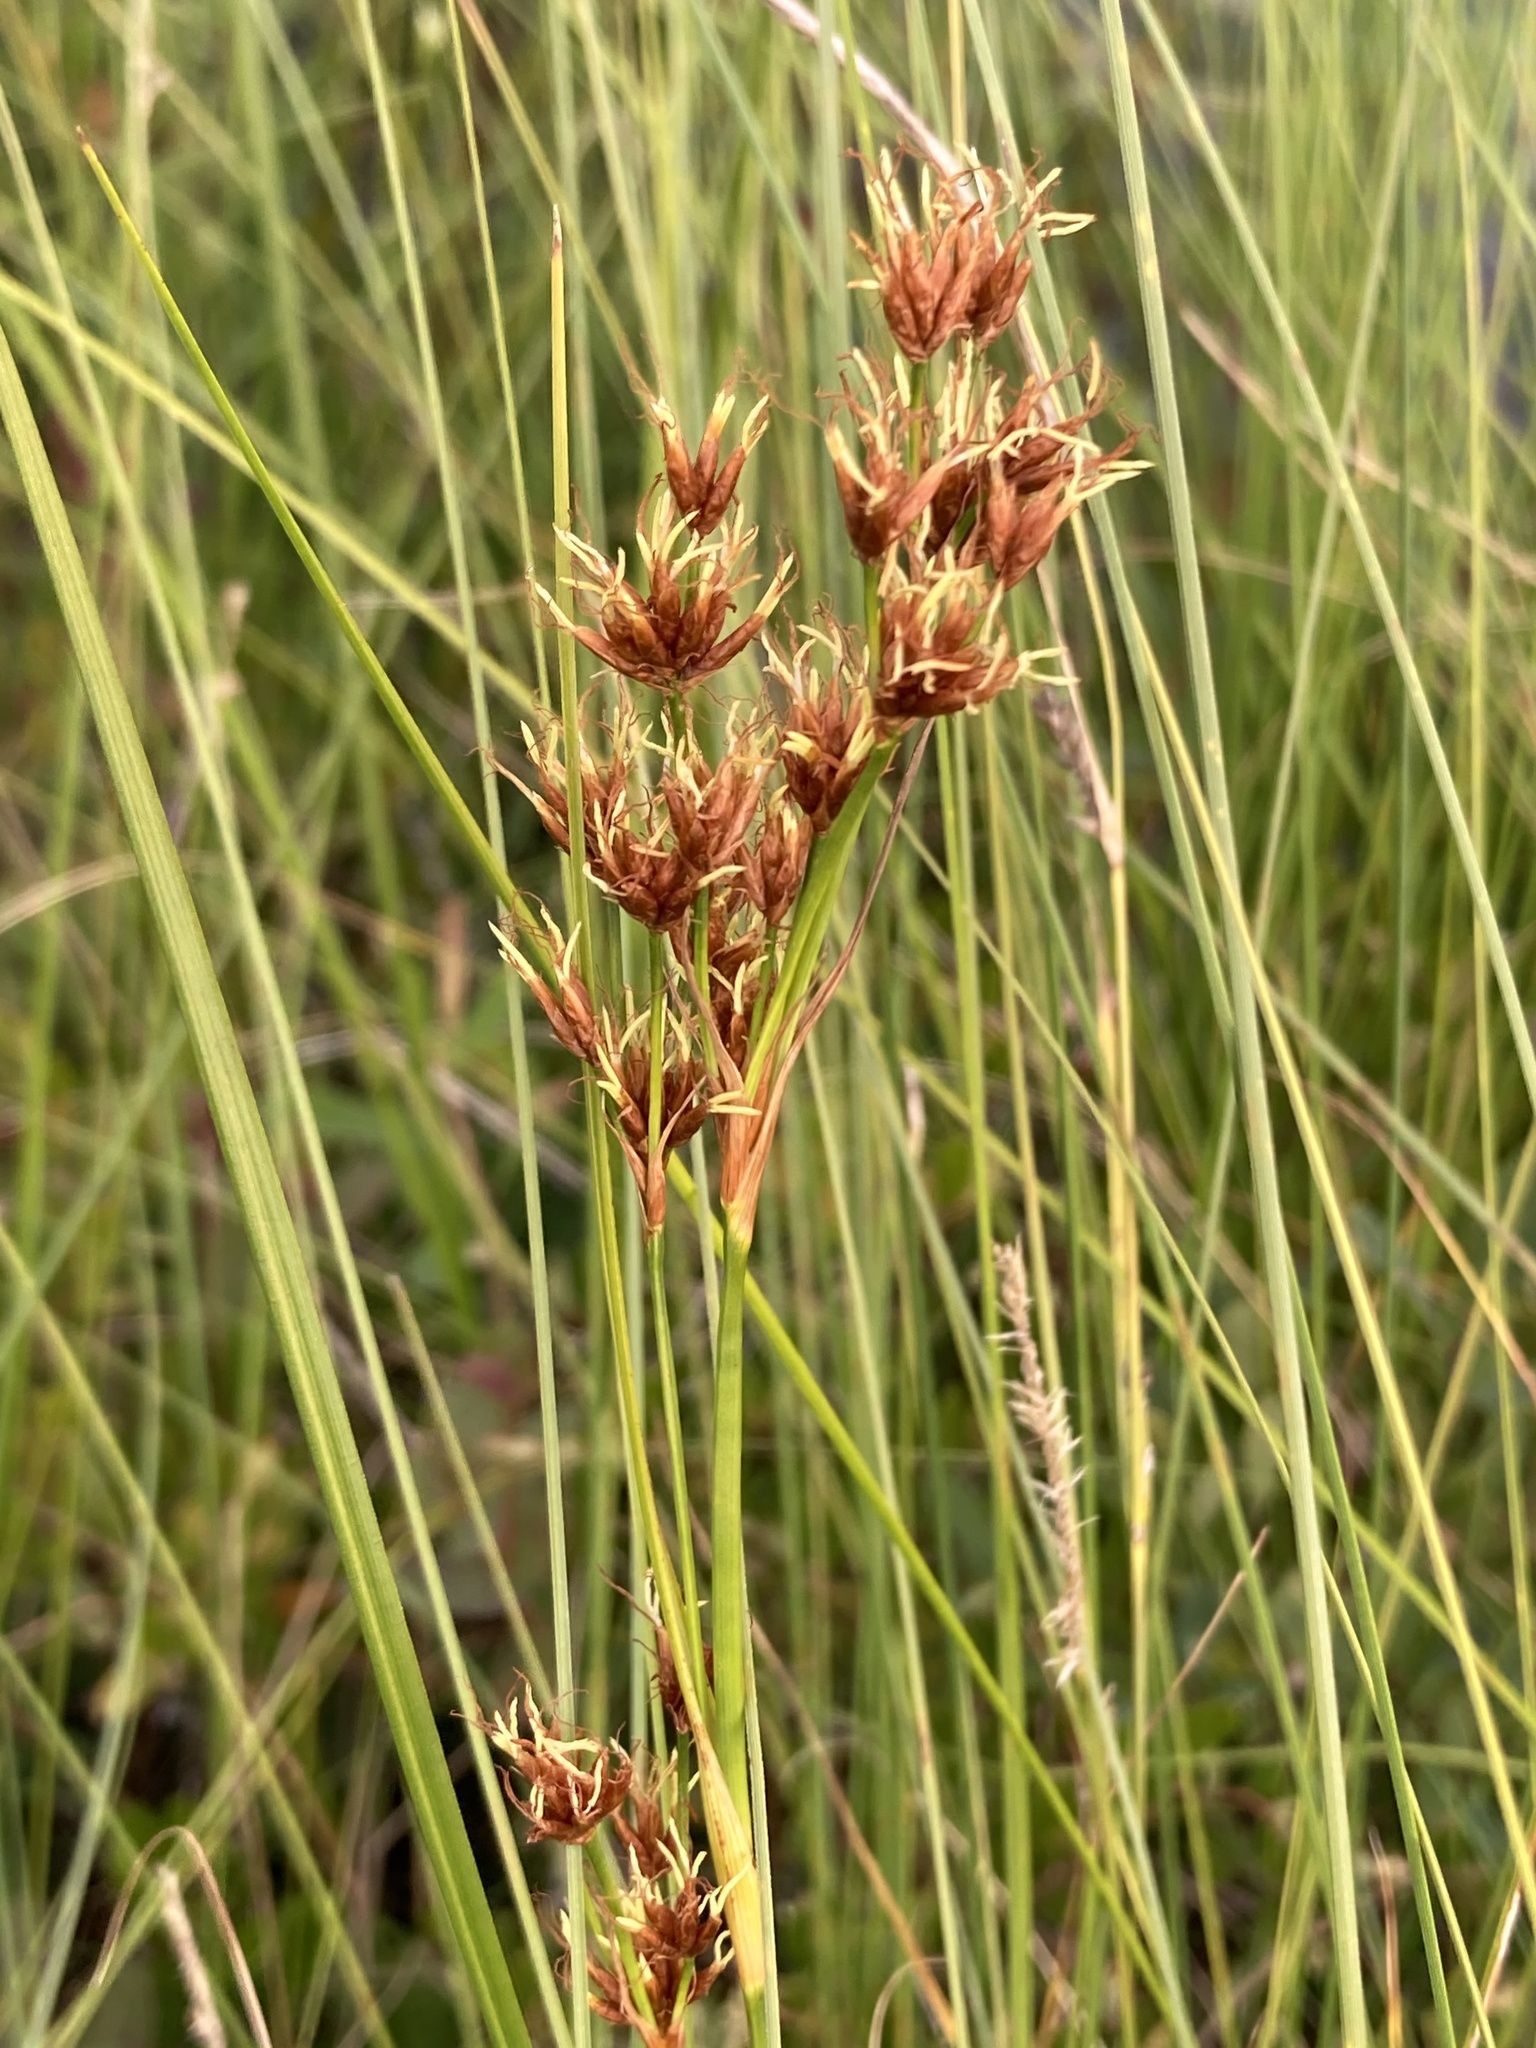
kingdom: Plantae
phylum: Tracheophyta
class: Liliopsida
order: Poales
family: Cyperaceae
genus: Cladium
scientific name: Cladium mariscoides
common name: Smooth sawgrass
